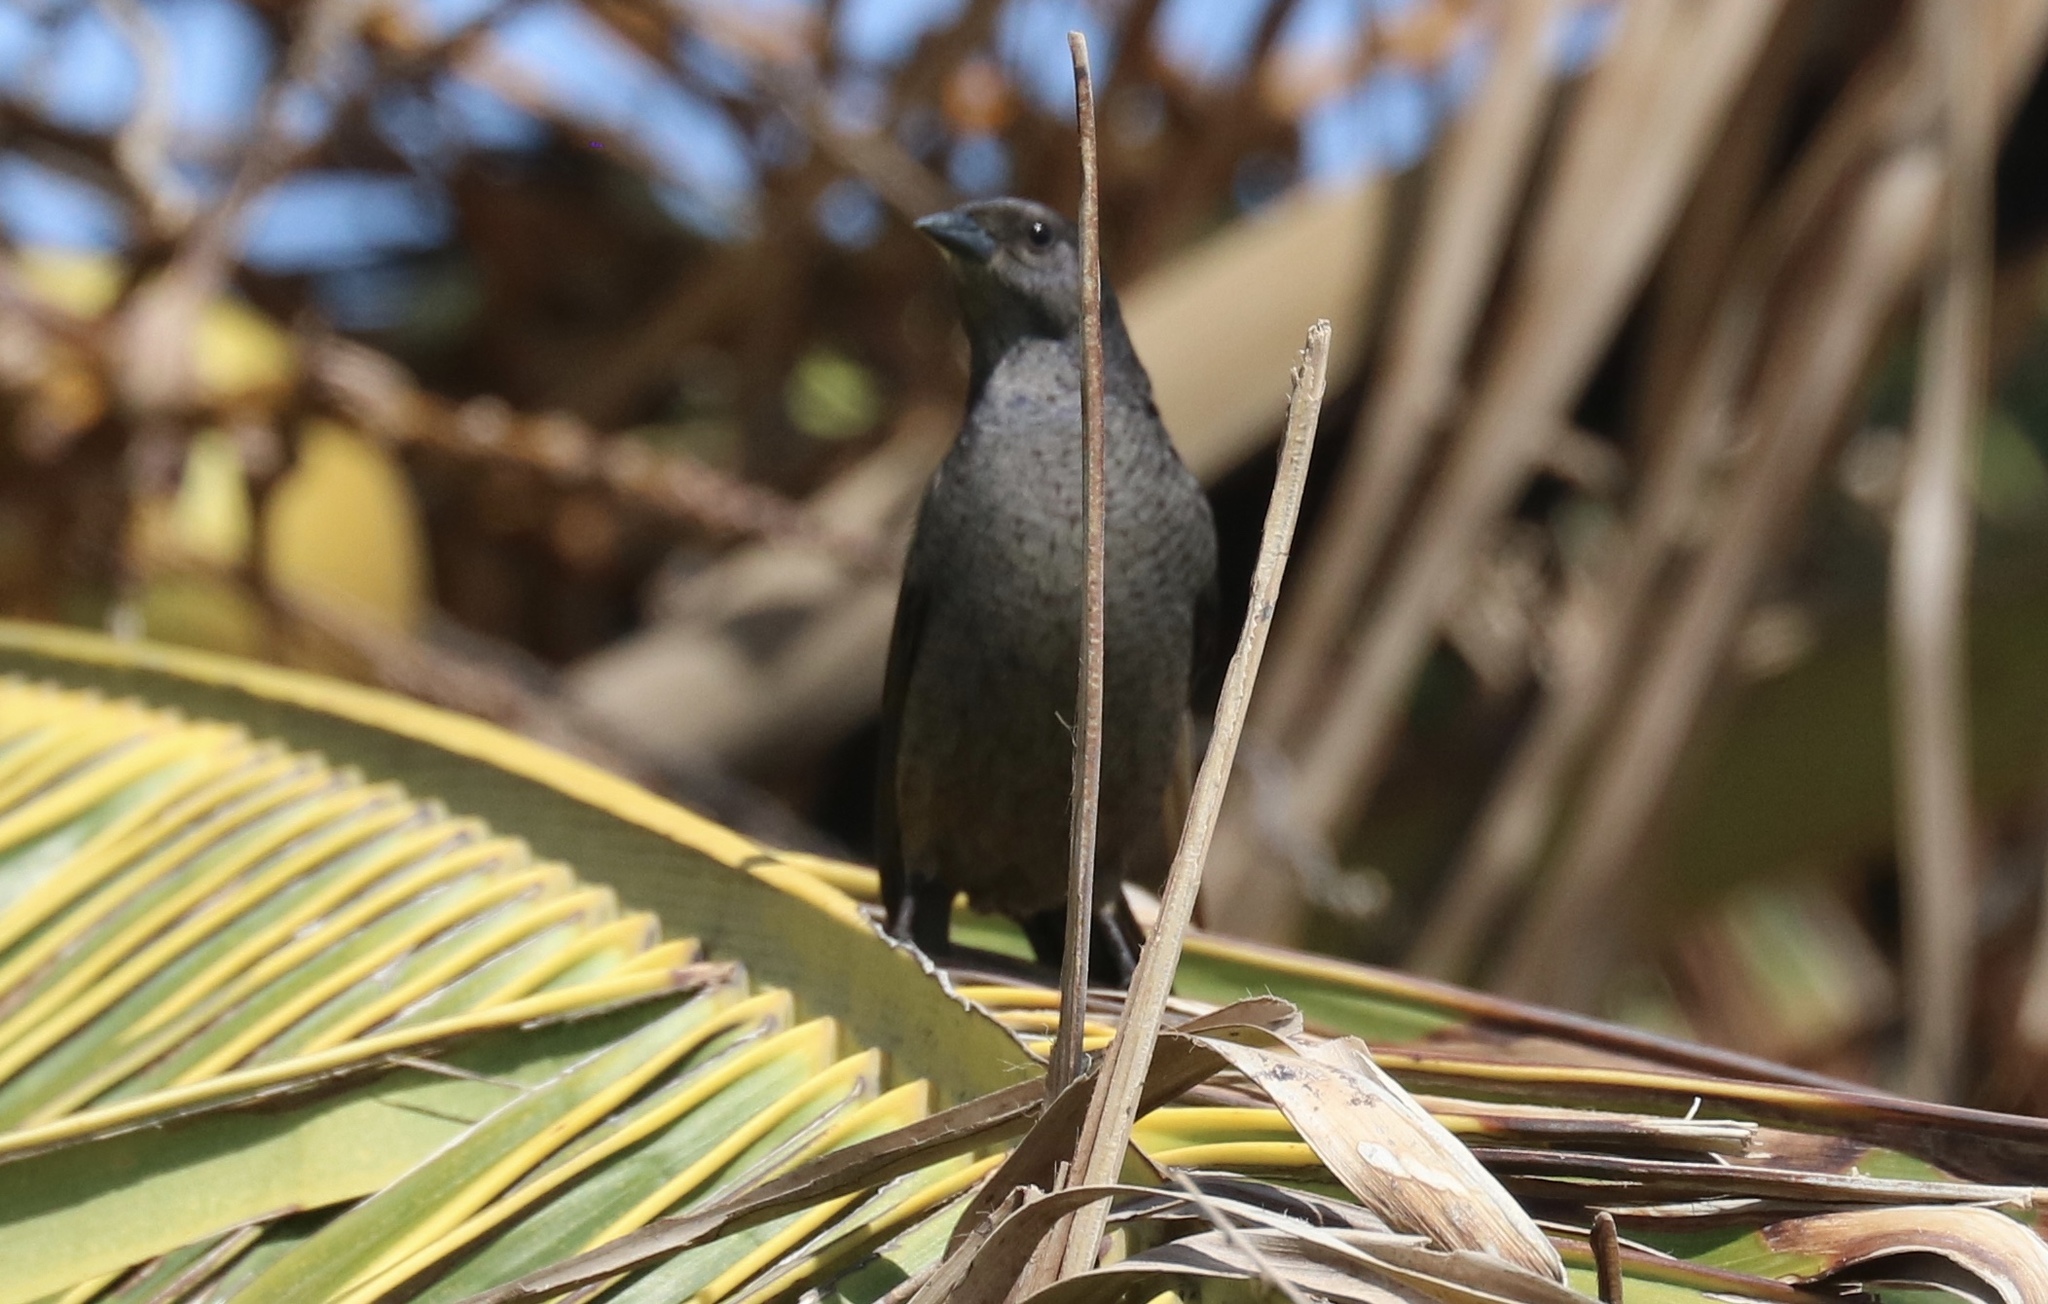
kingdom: Animalia
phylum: Chordata
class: Aves
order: Passeriformes
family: Icteridae
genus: Molothrus
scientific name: Molothrus bonariensis
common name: Shiny cowbird
